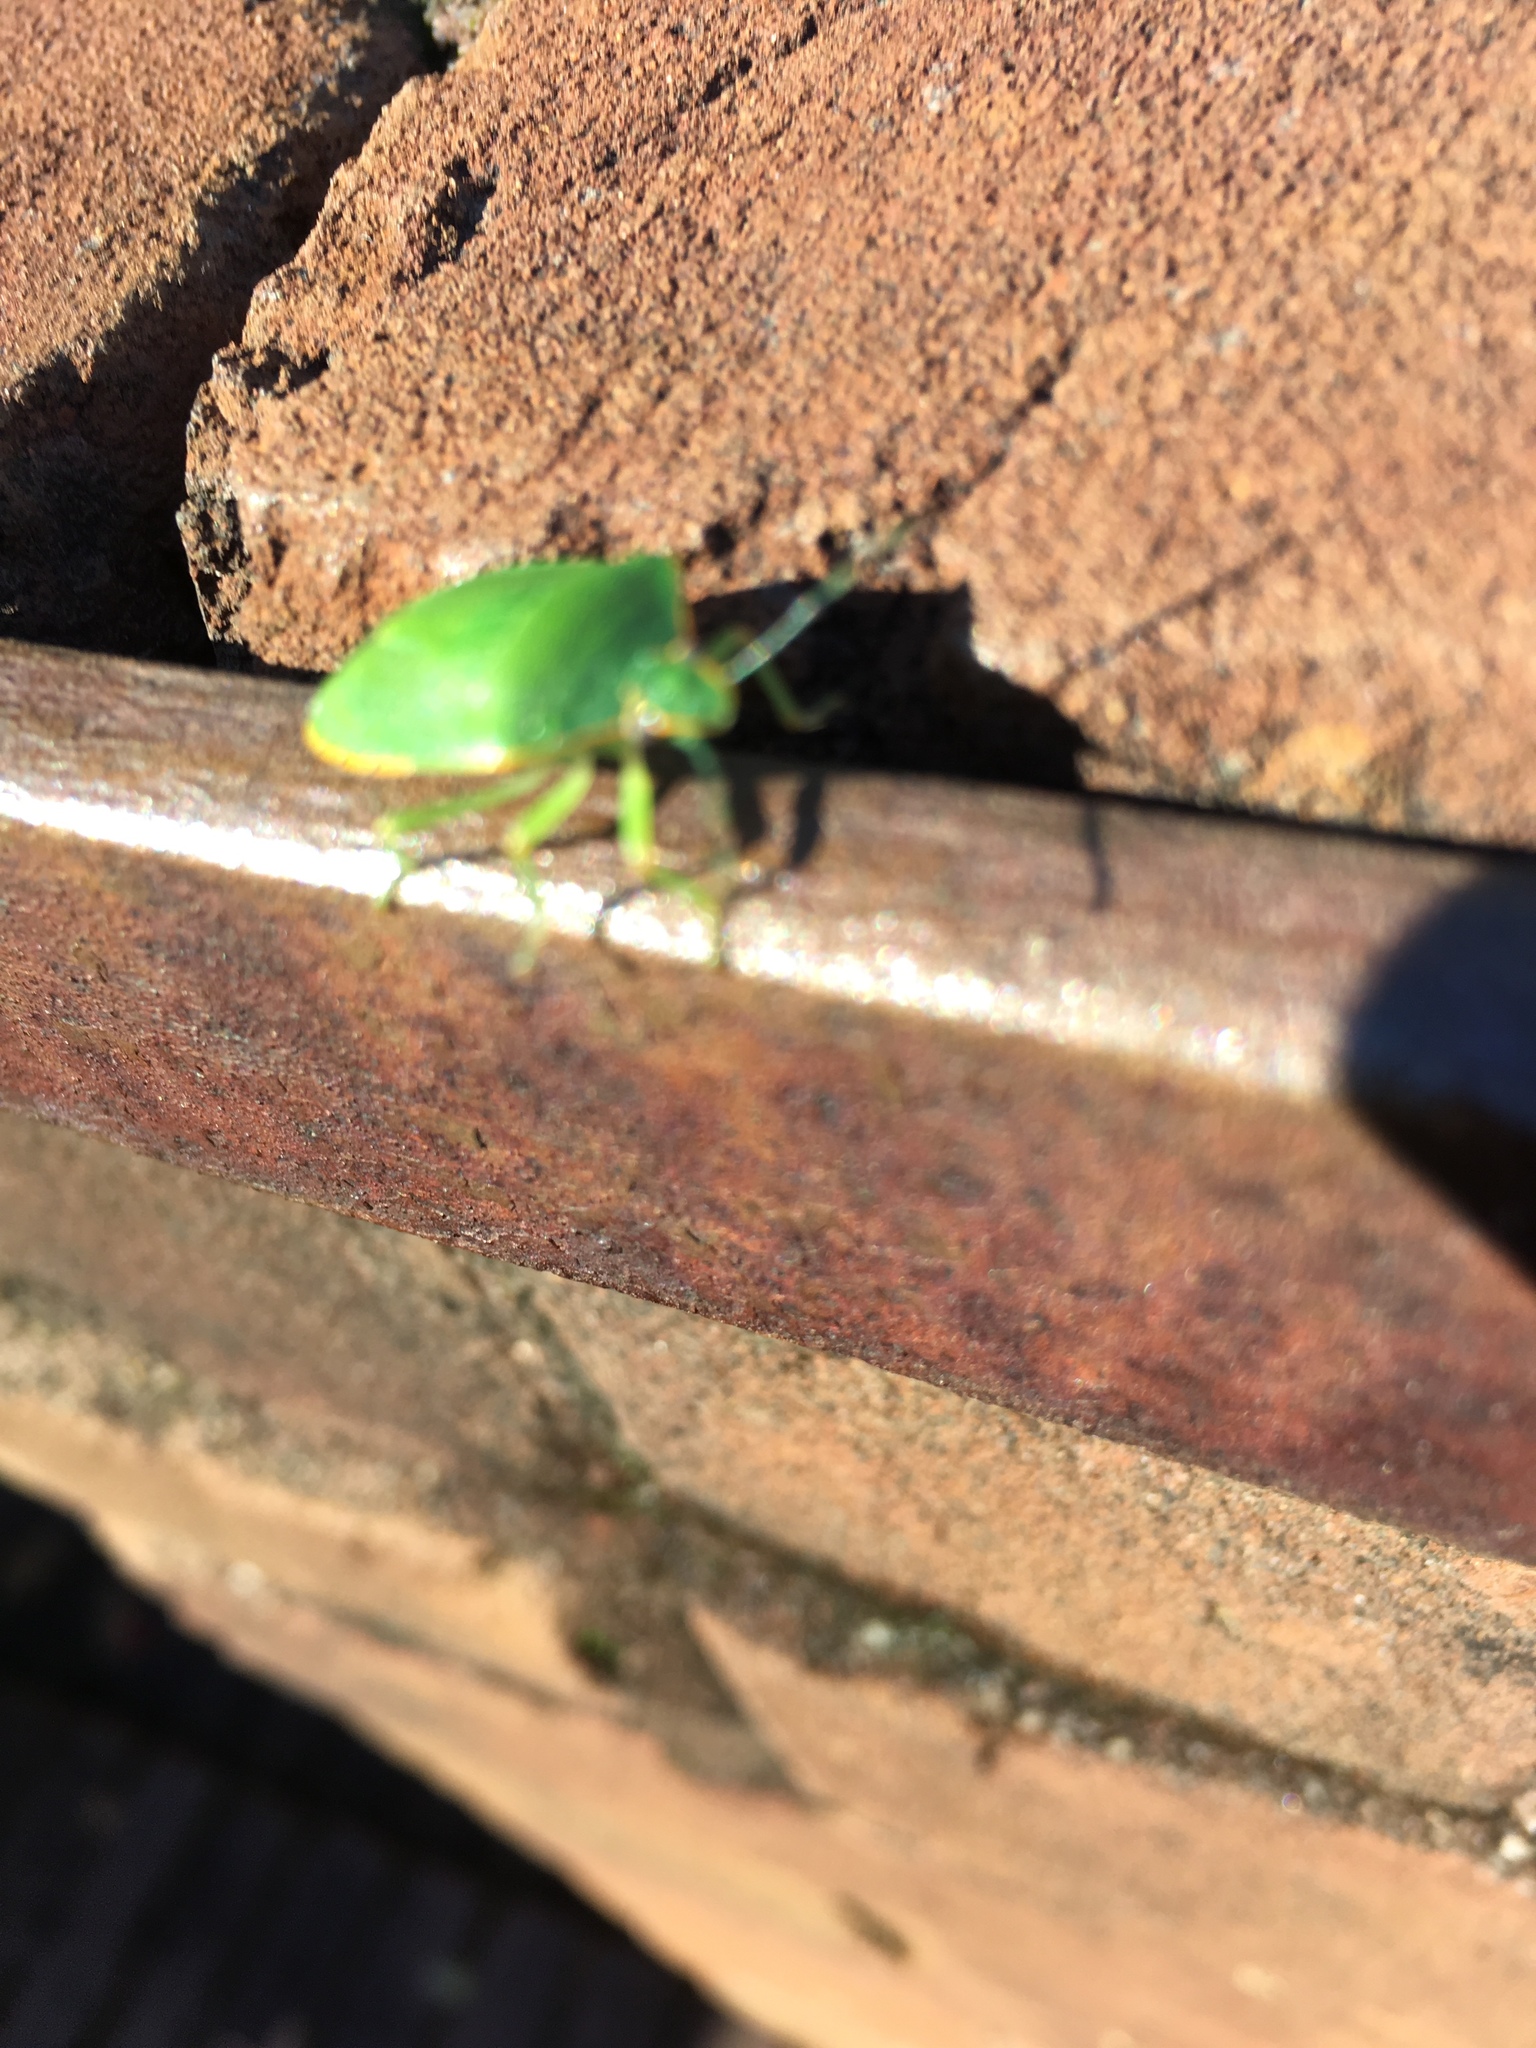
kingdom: Animalia
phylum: Arthropoda
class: Insecta
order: Hemiptera
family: Pentatomidae
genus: Chinavia
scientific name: Chinavia hilaris
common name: Green stink bug
